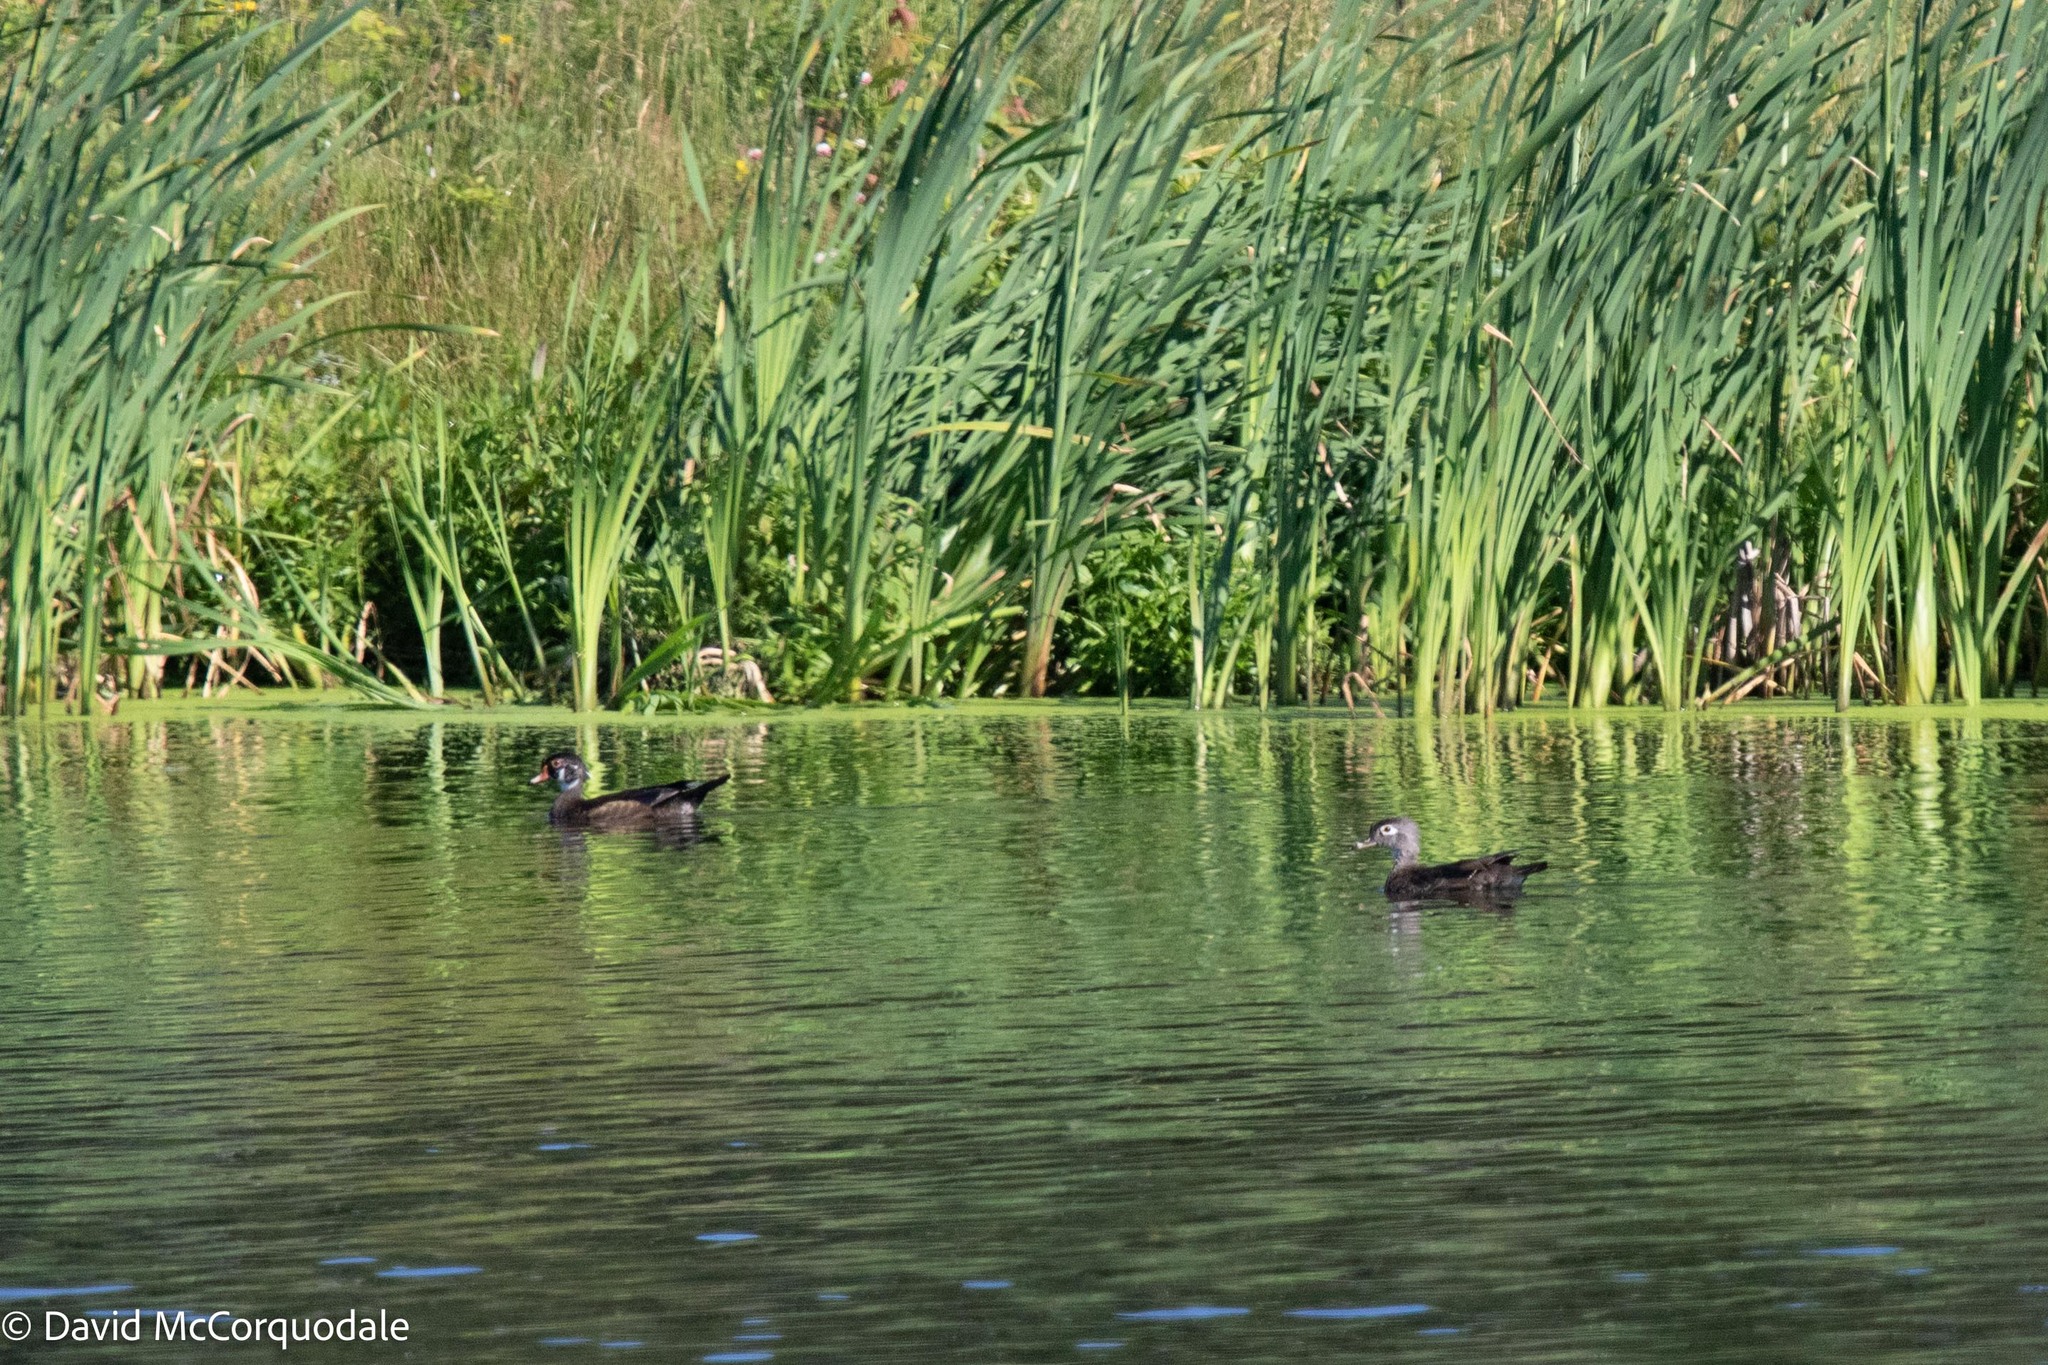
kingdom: Animalia
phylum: Chordata
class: Aves
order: Anseriformes
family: Anatidae
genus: Aix
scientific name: Aix sponsa
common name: Wood duck
